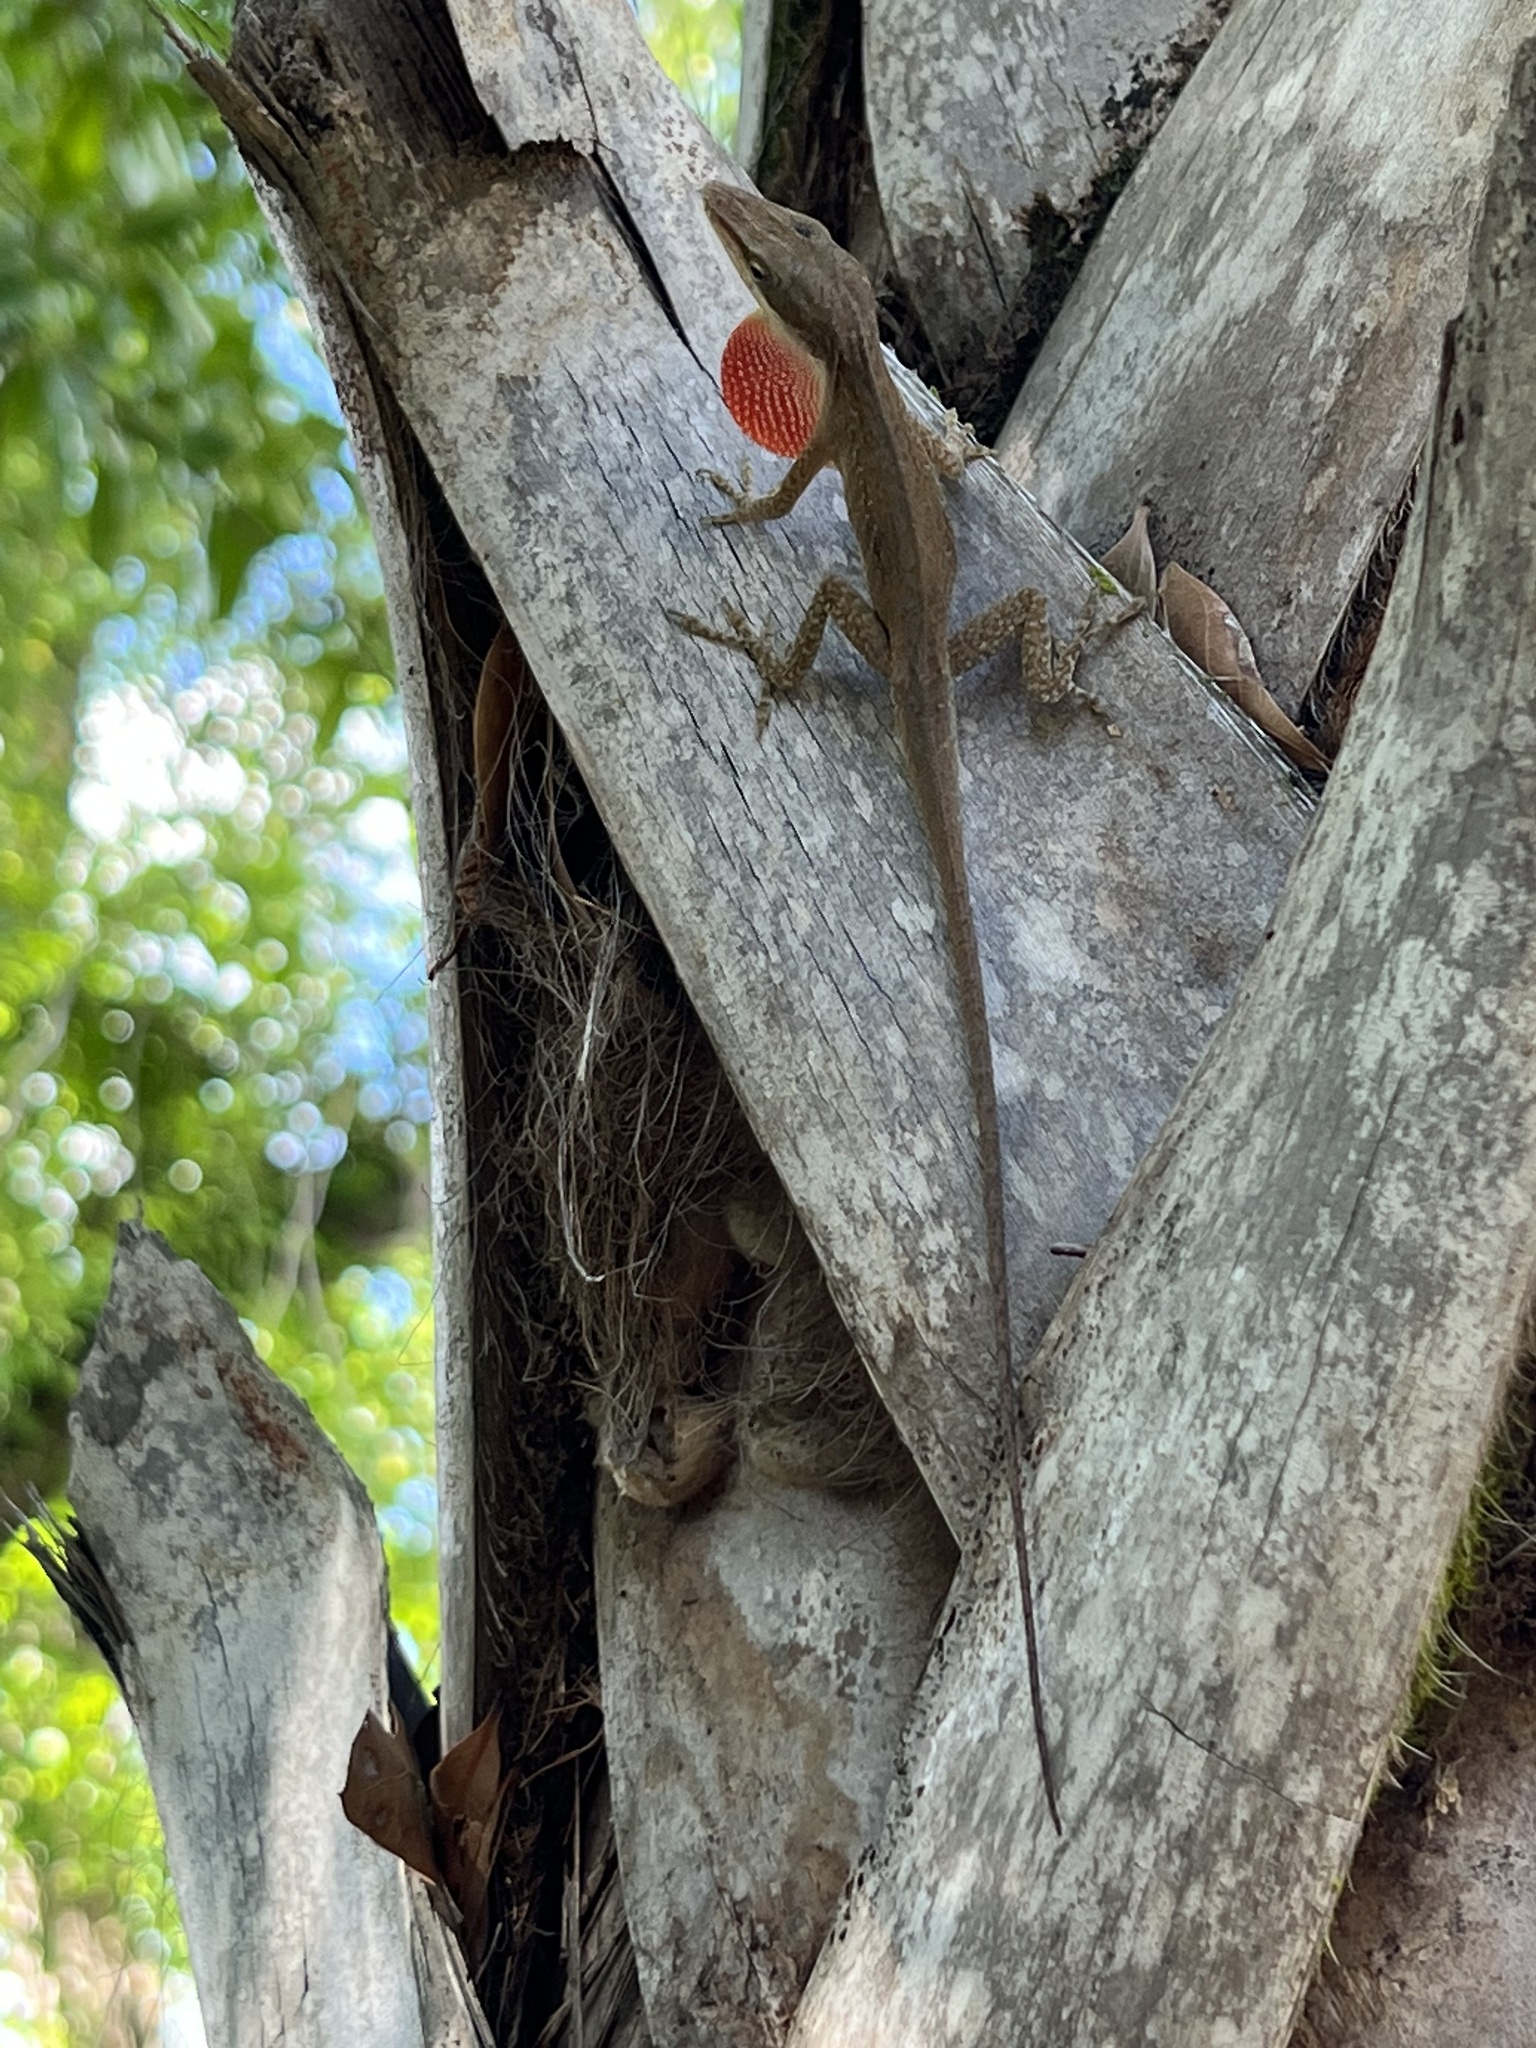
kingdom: Animalia
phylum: Chordata
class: Squamata
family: Dactyloidae
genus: Anolis
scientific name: Anolis carolinensis
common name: Green anole
